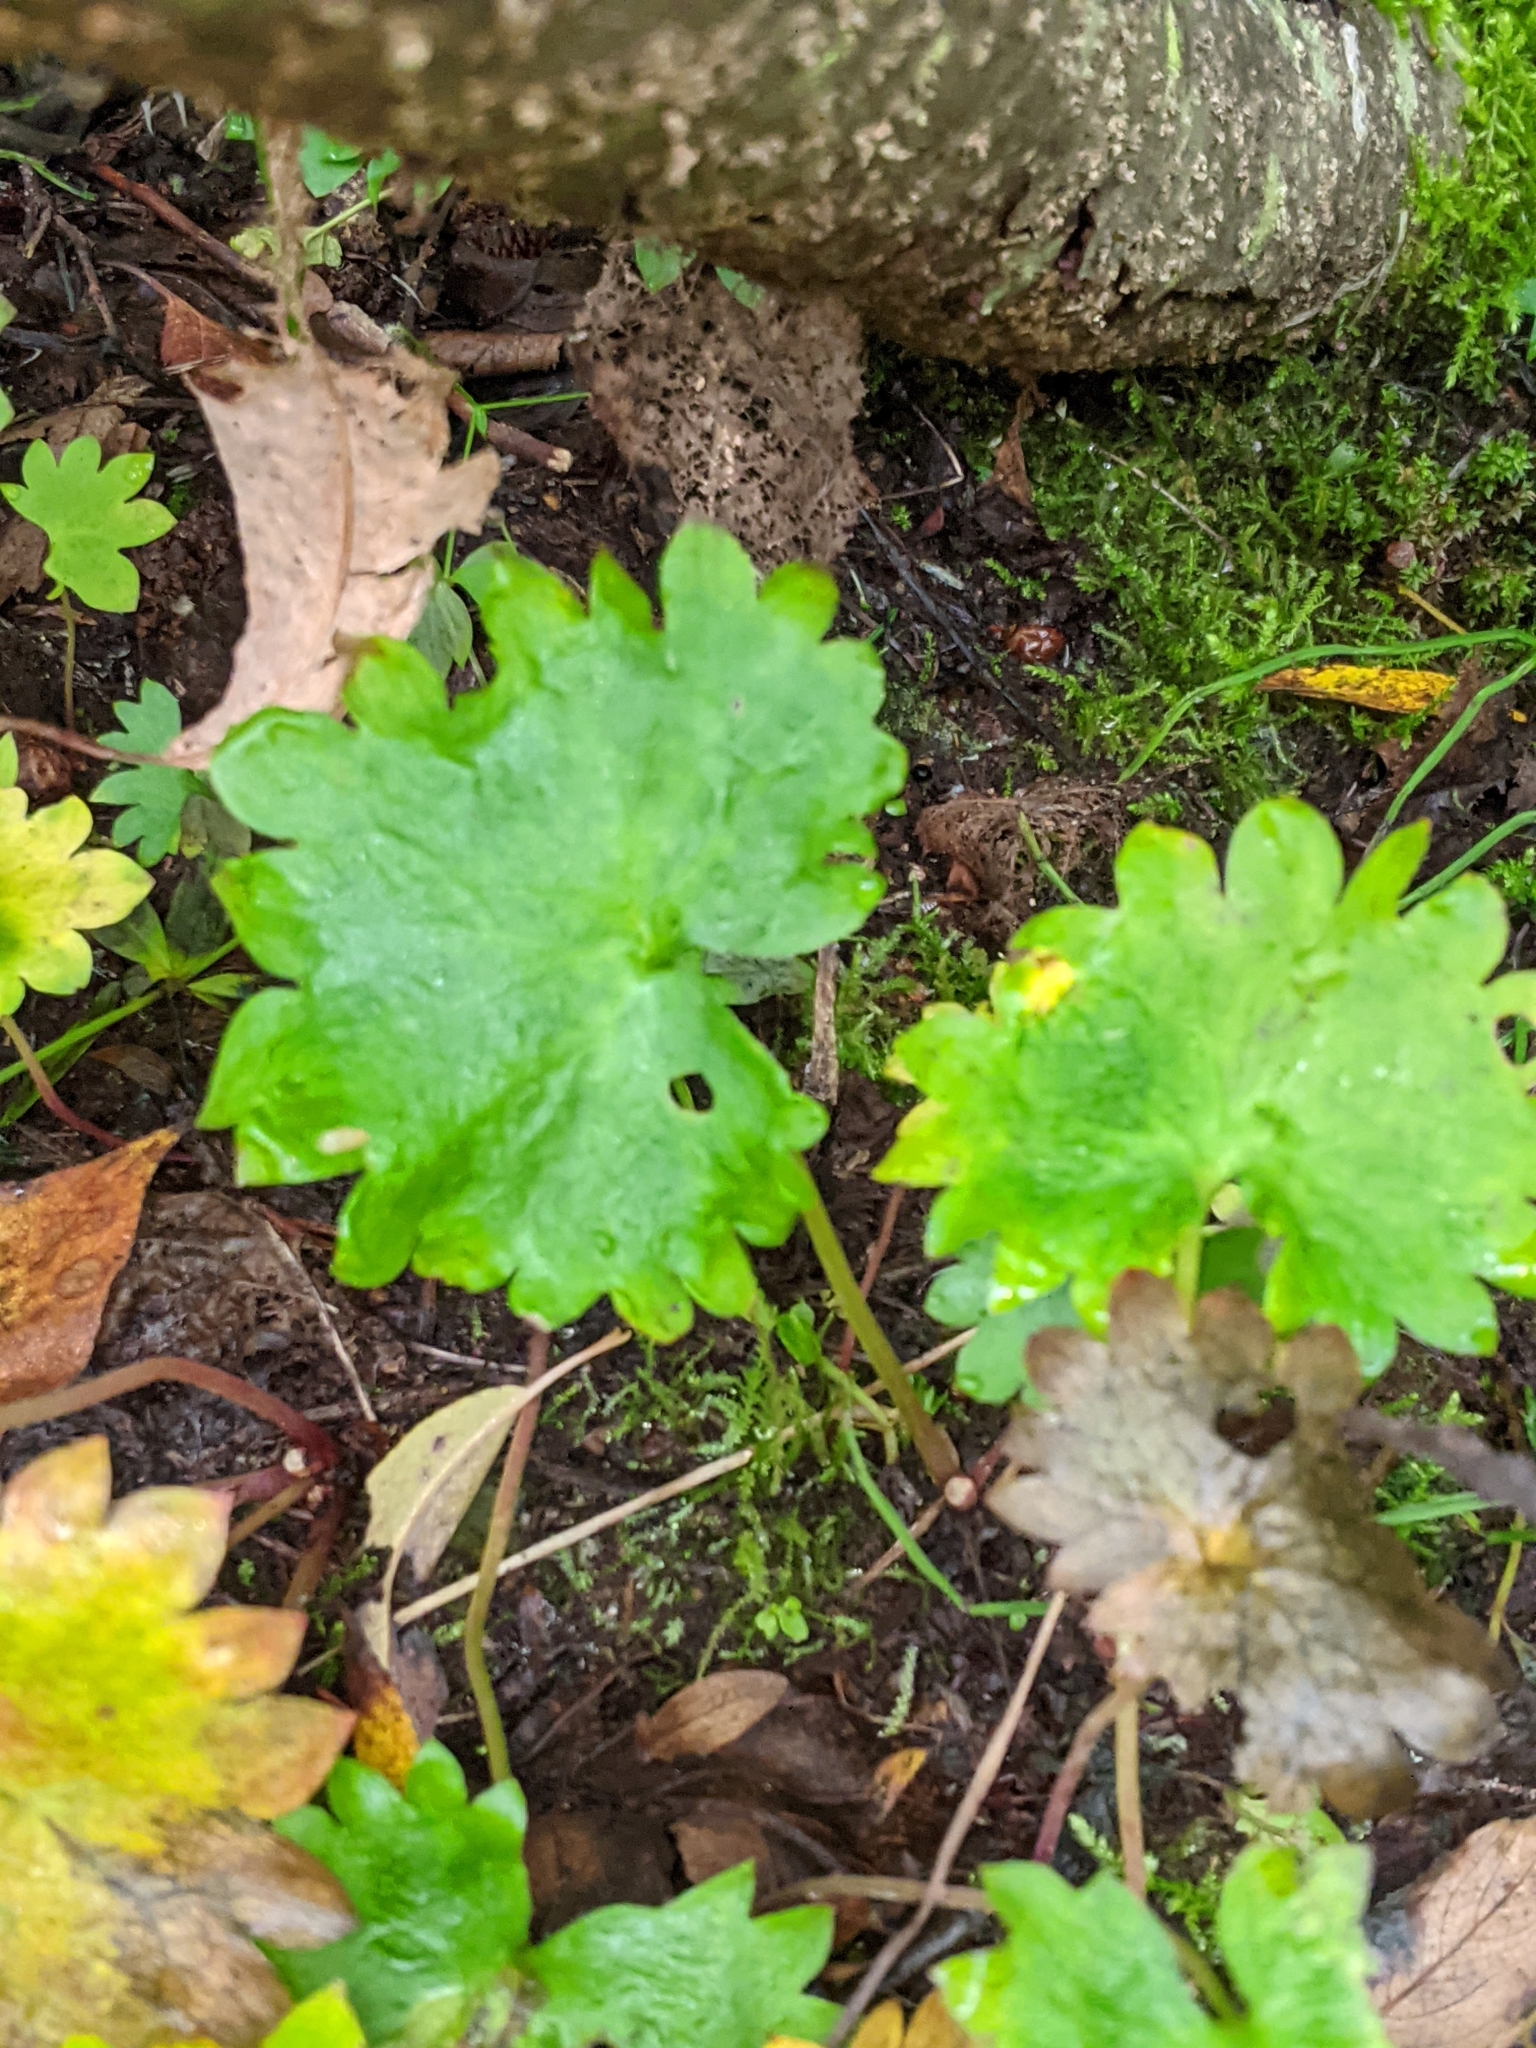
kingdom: Plantae
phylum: Tracheophyta
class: Magnoliopsida
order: Saxifragales
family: Saxifragaceae
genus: Micranthes
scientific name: Micranthes odontoloma
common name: Brook saxifrage
